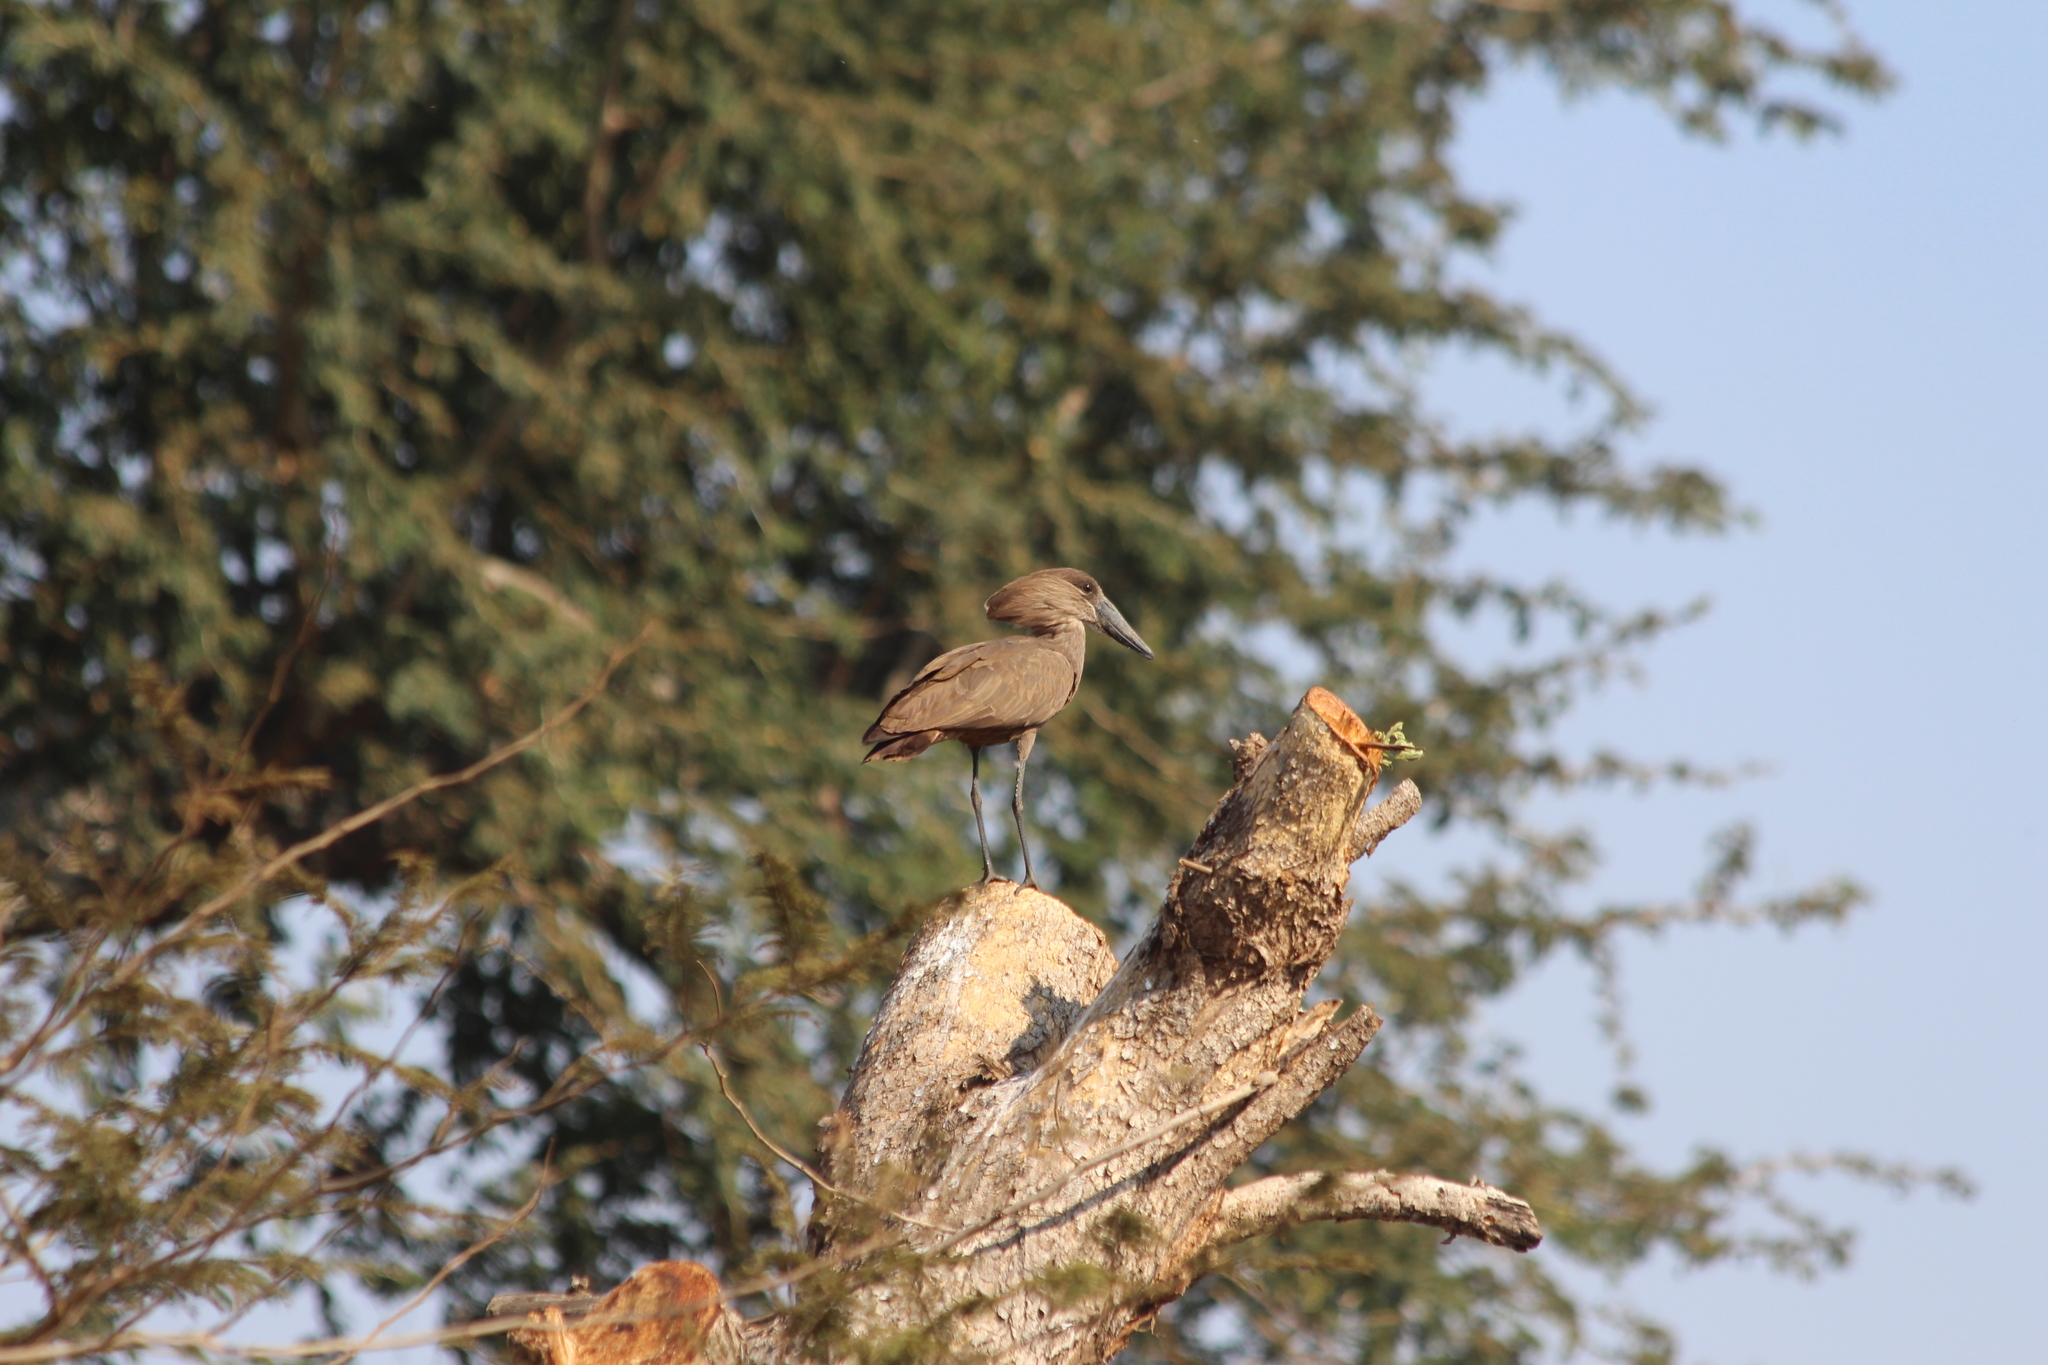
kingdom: Animalia
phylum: Chordata
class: Aves
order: Pelecaniformes
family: Scopidae
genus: Scopus
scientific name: Scopus umbretta
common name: Hamerkop
